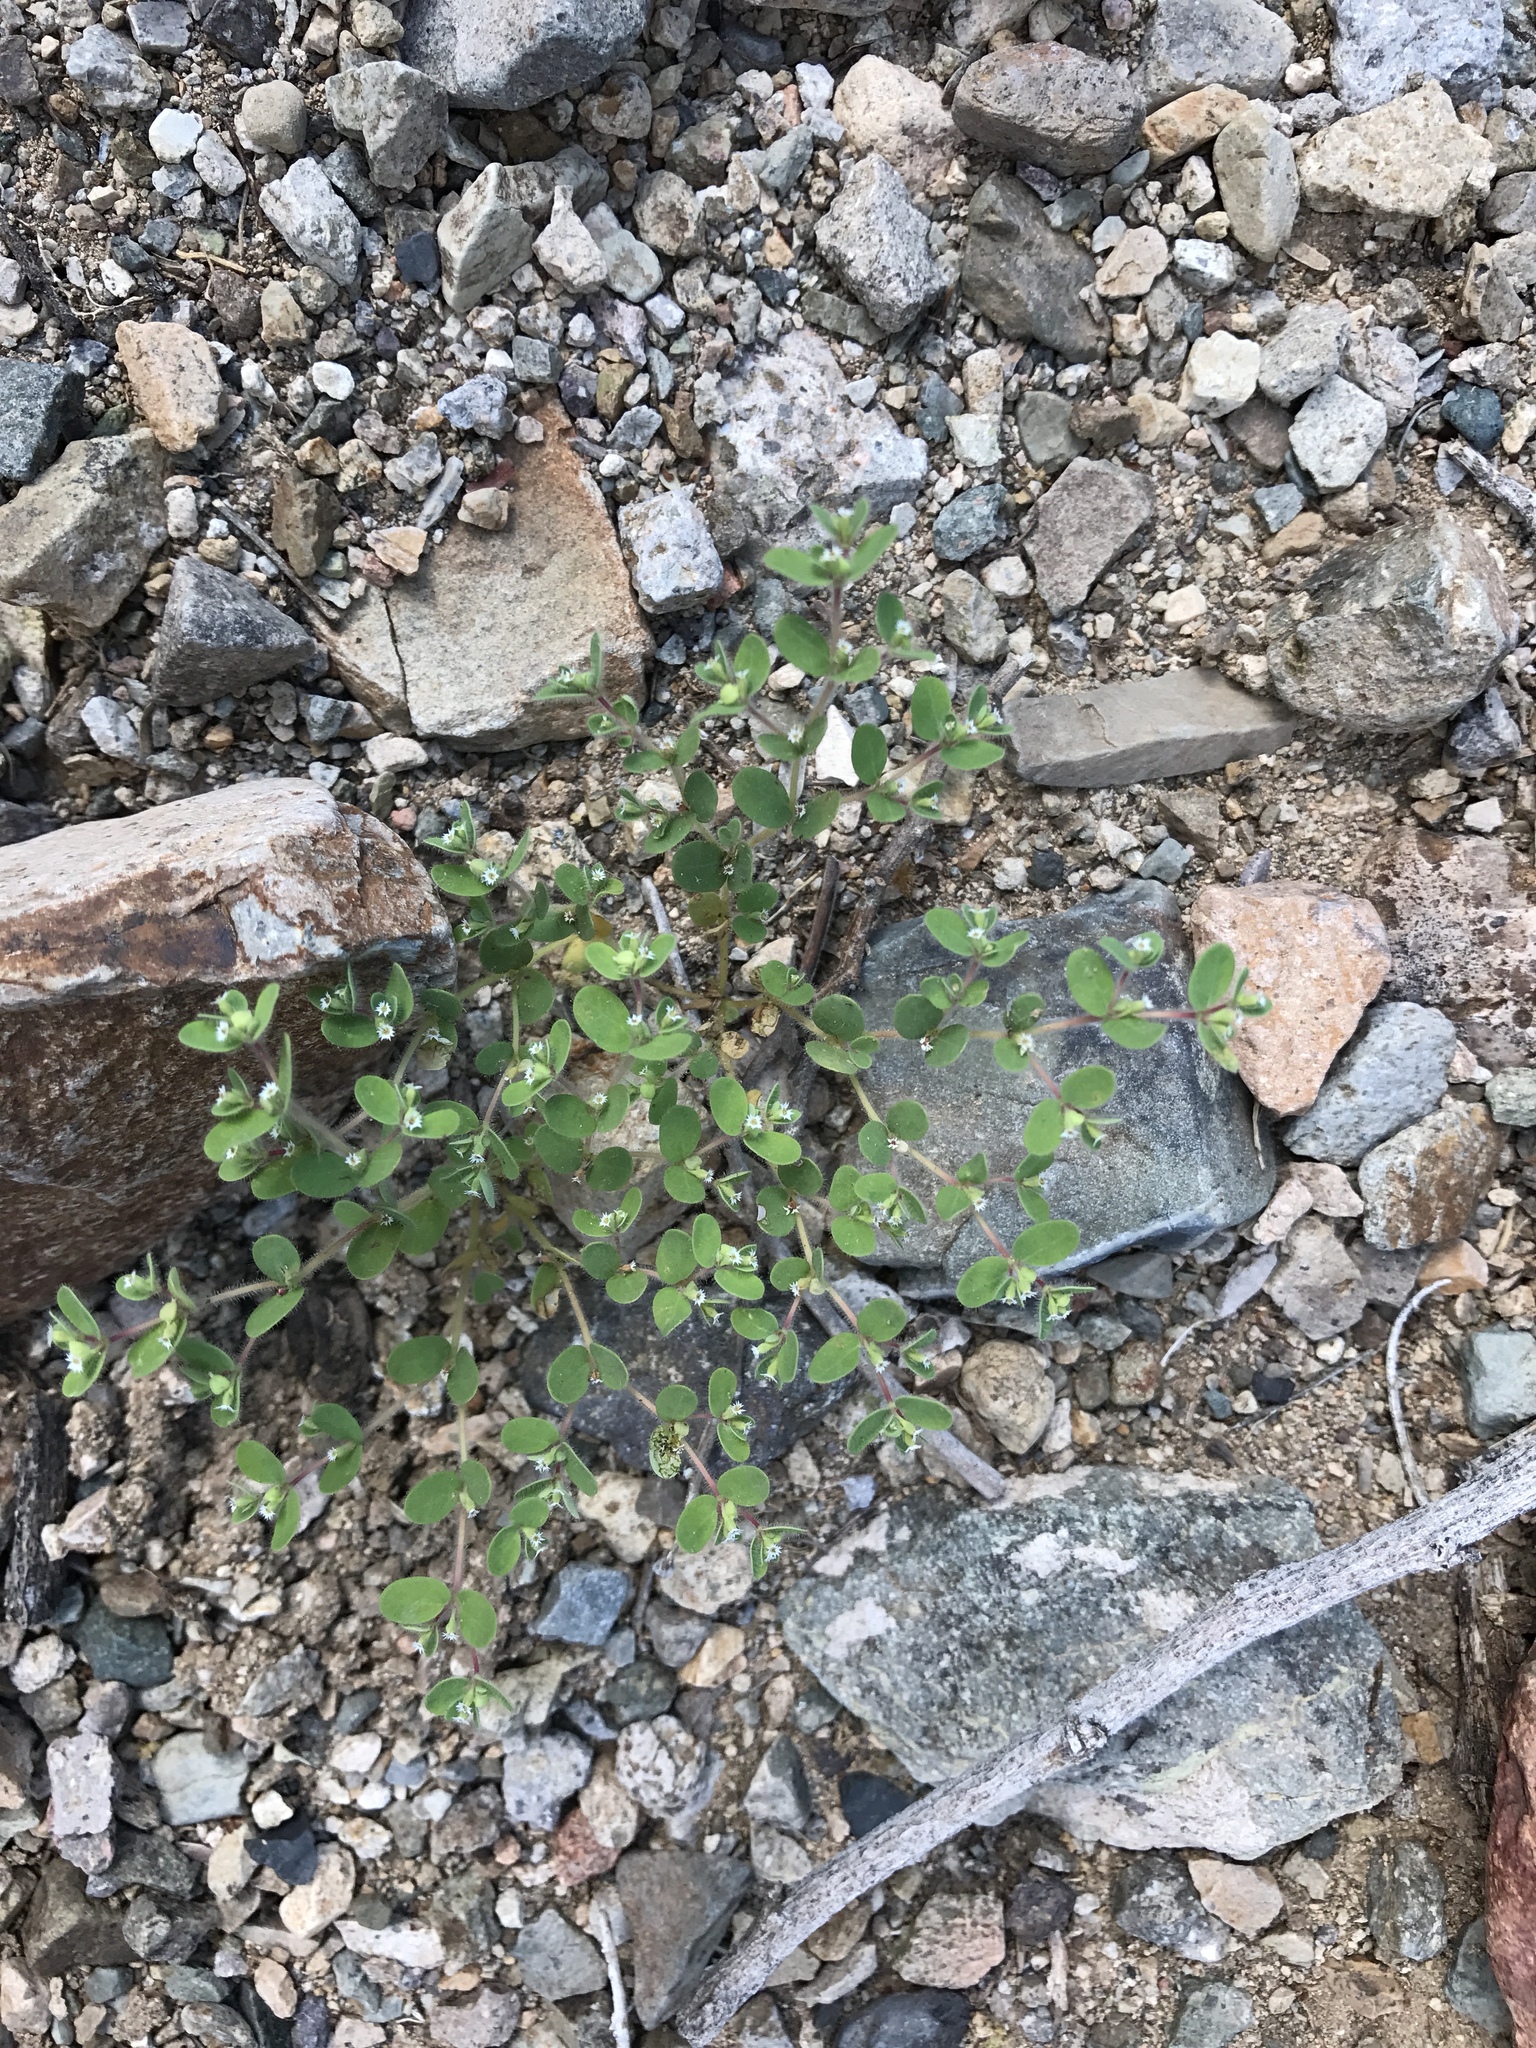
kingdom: Plantae
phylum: Tracheophyta
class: Magnoliopsida
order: Malpighiales
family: Euphorbiaceae
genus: Euphorbia
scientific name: Euphorbia setiloba
